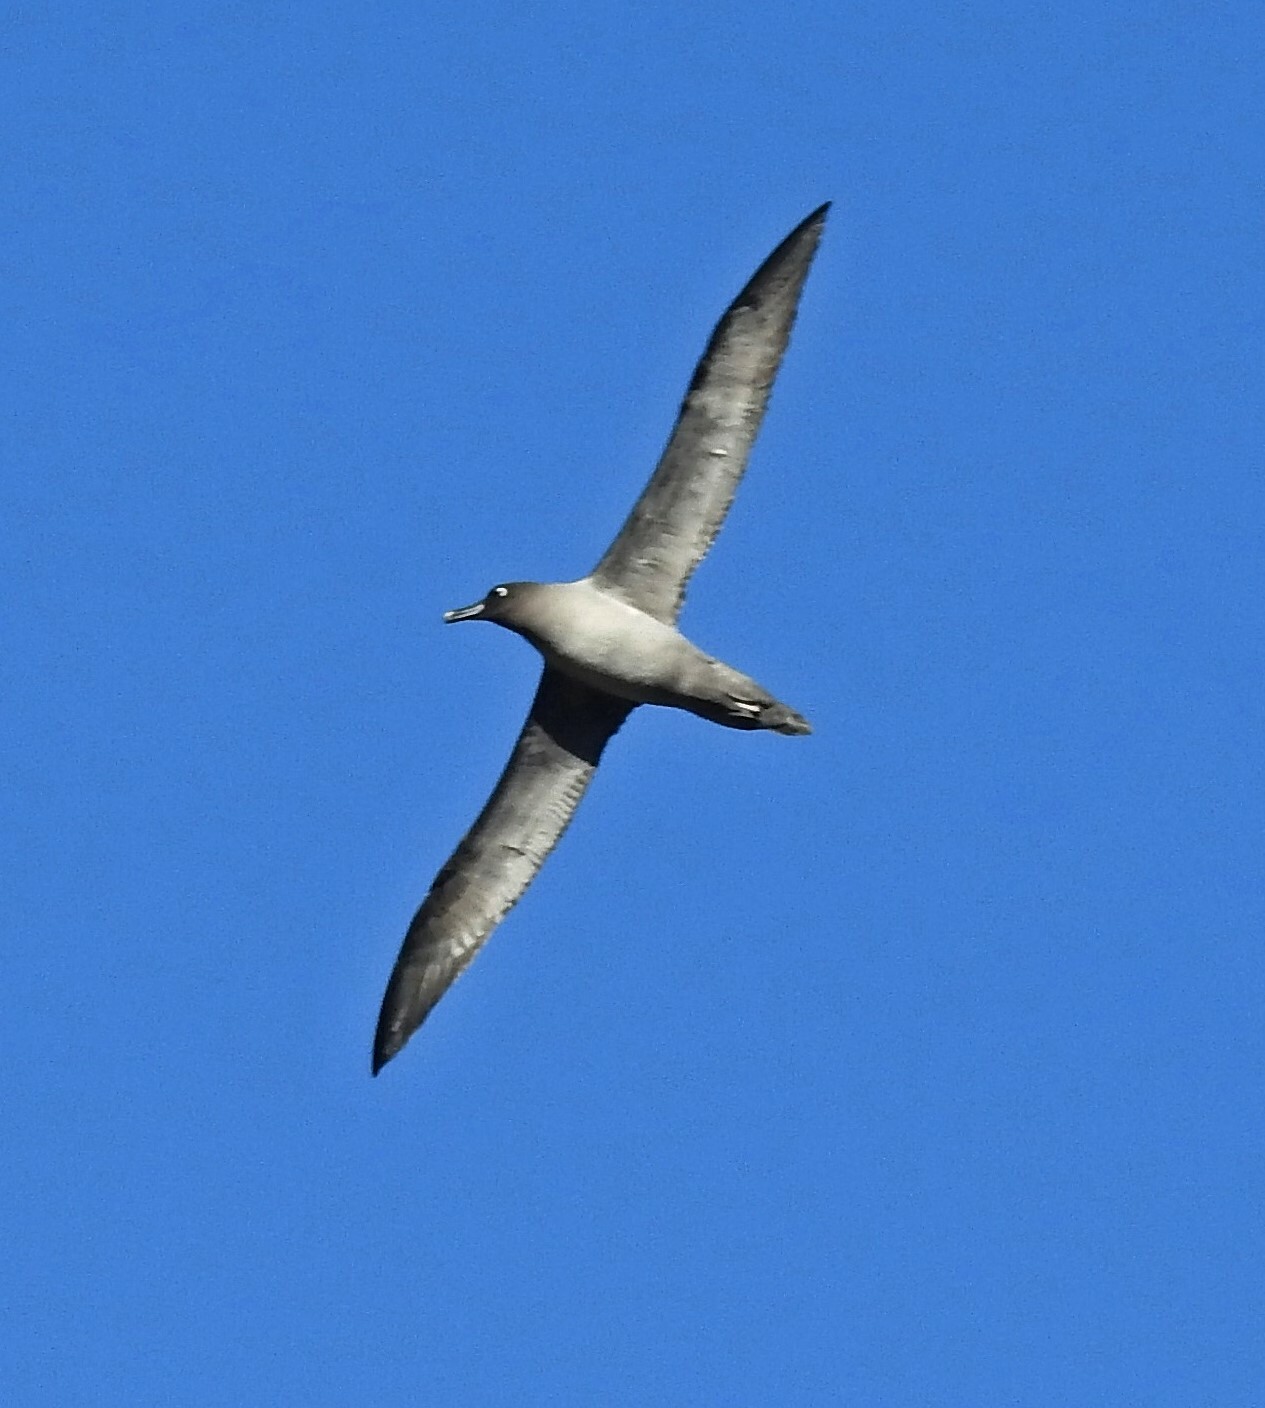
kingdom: Animalia
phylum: Chordata
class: Aves
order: Procellariiformes
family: Diomedeidae
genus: Phoebetria
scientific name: Phoebetria palpebrata
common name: Light-mantled albatross
